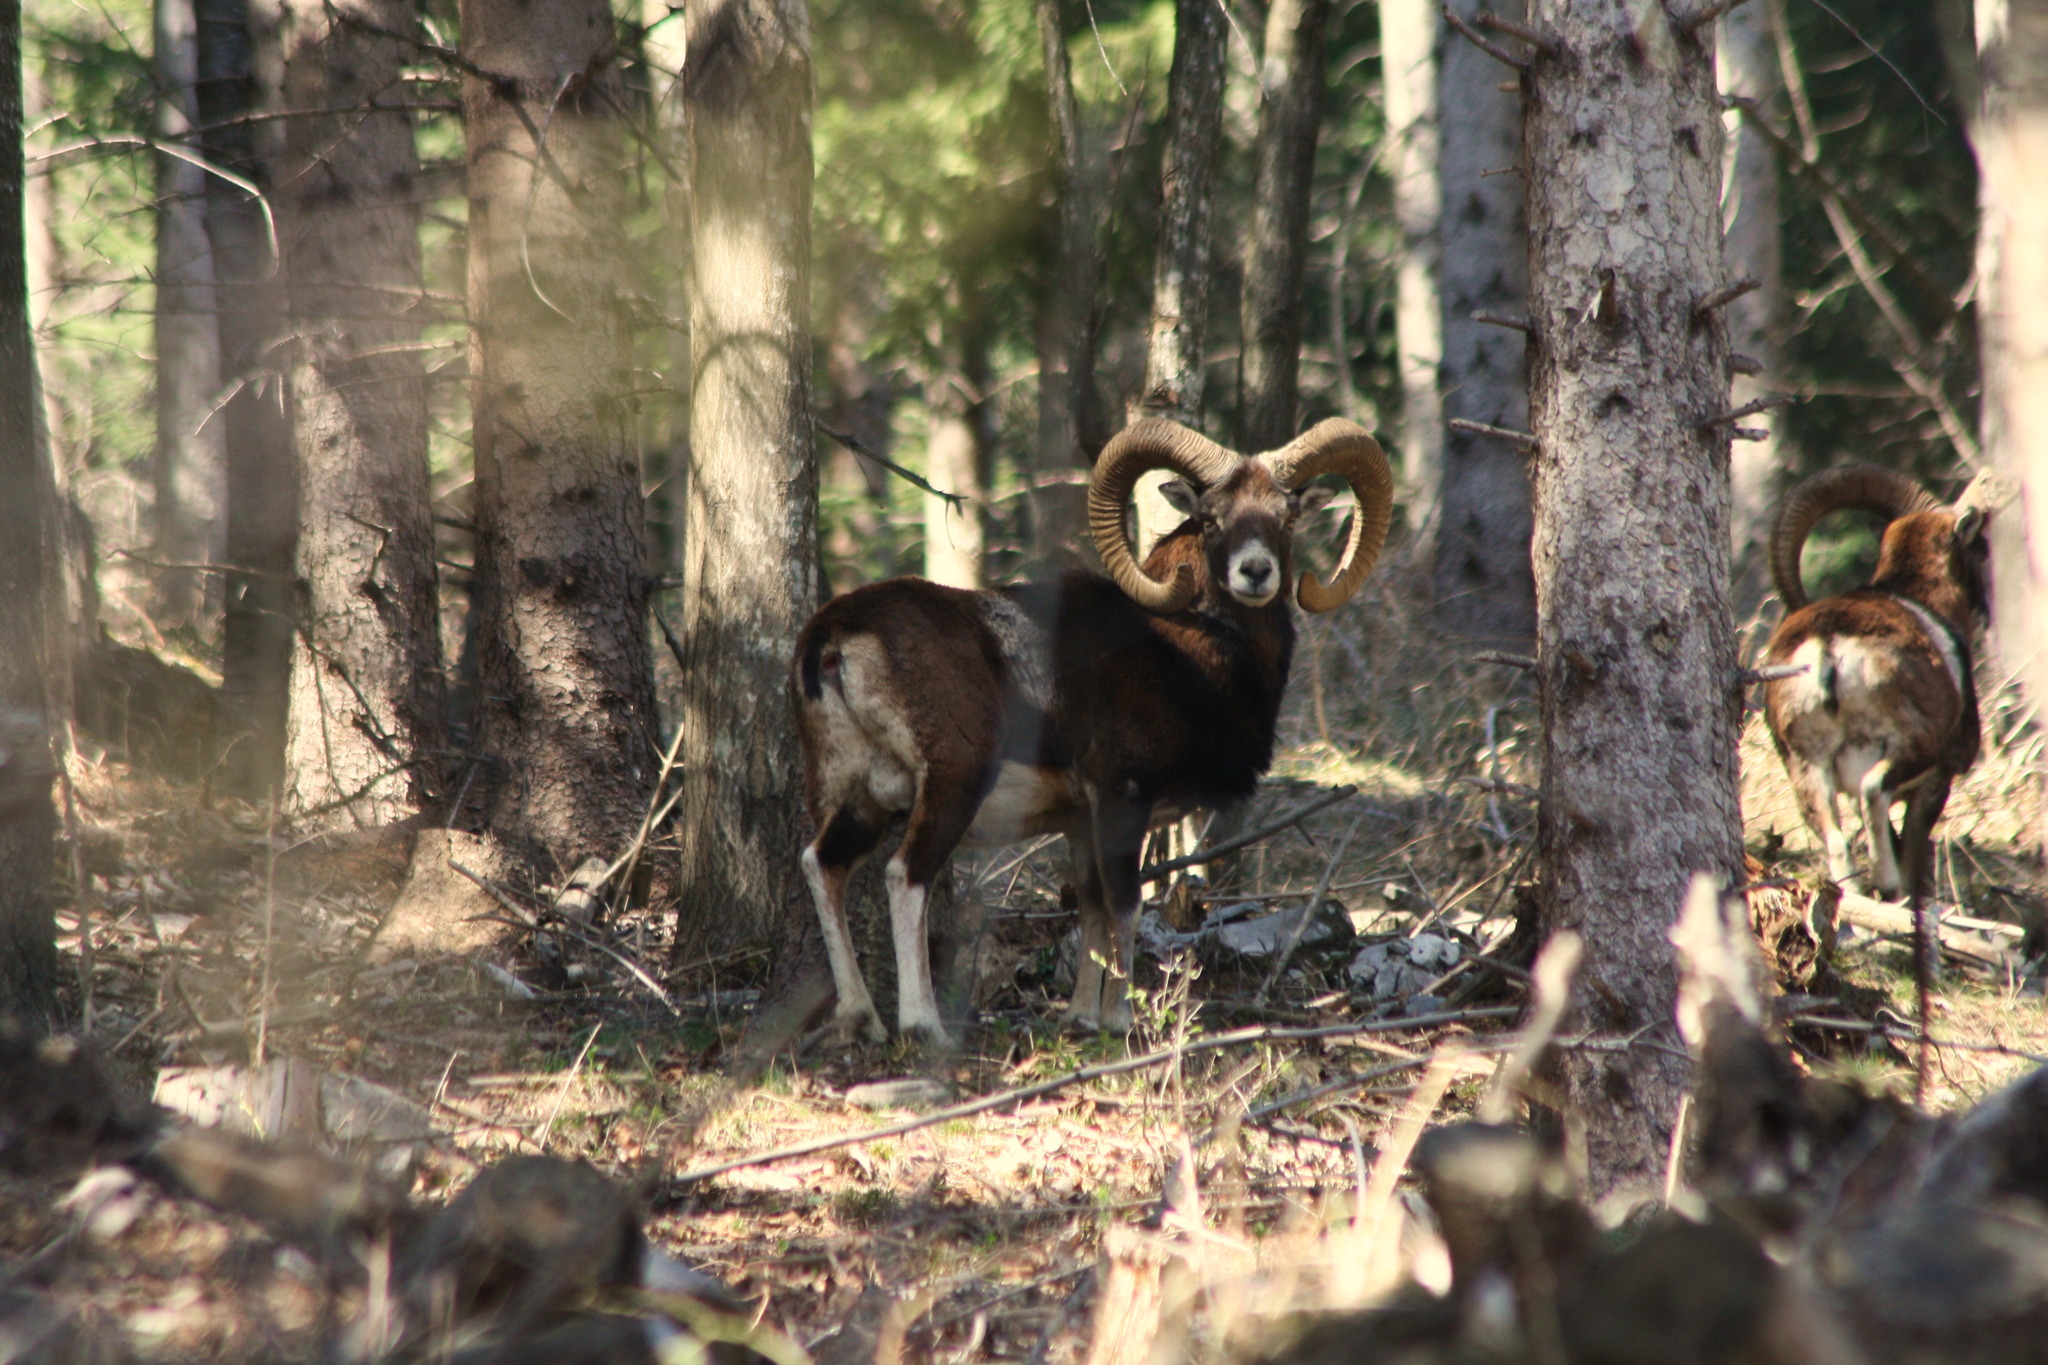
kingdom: Animalia
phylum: Chordata
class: Mammalia
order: Artiodactyla
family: Bovidae
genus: Ovis
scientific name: Ovis aries
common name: Domestic sheep
